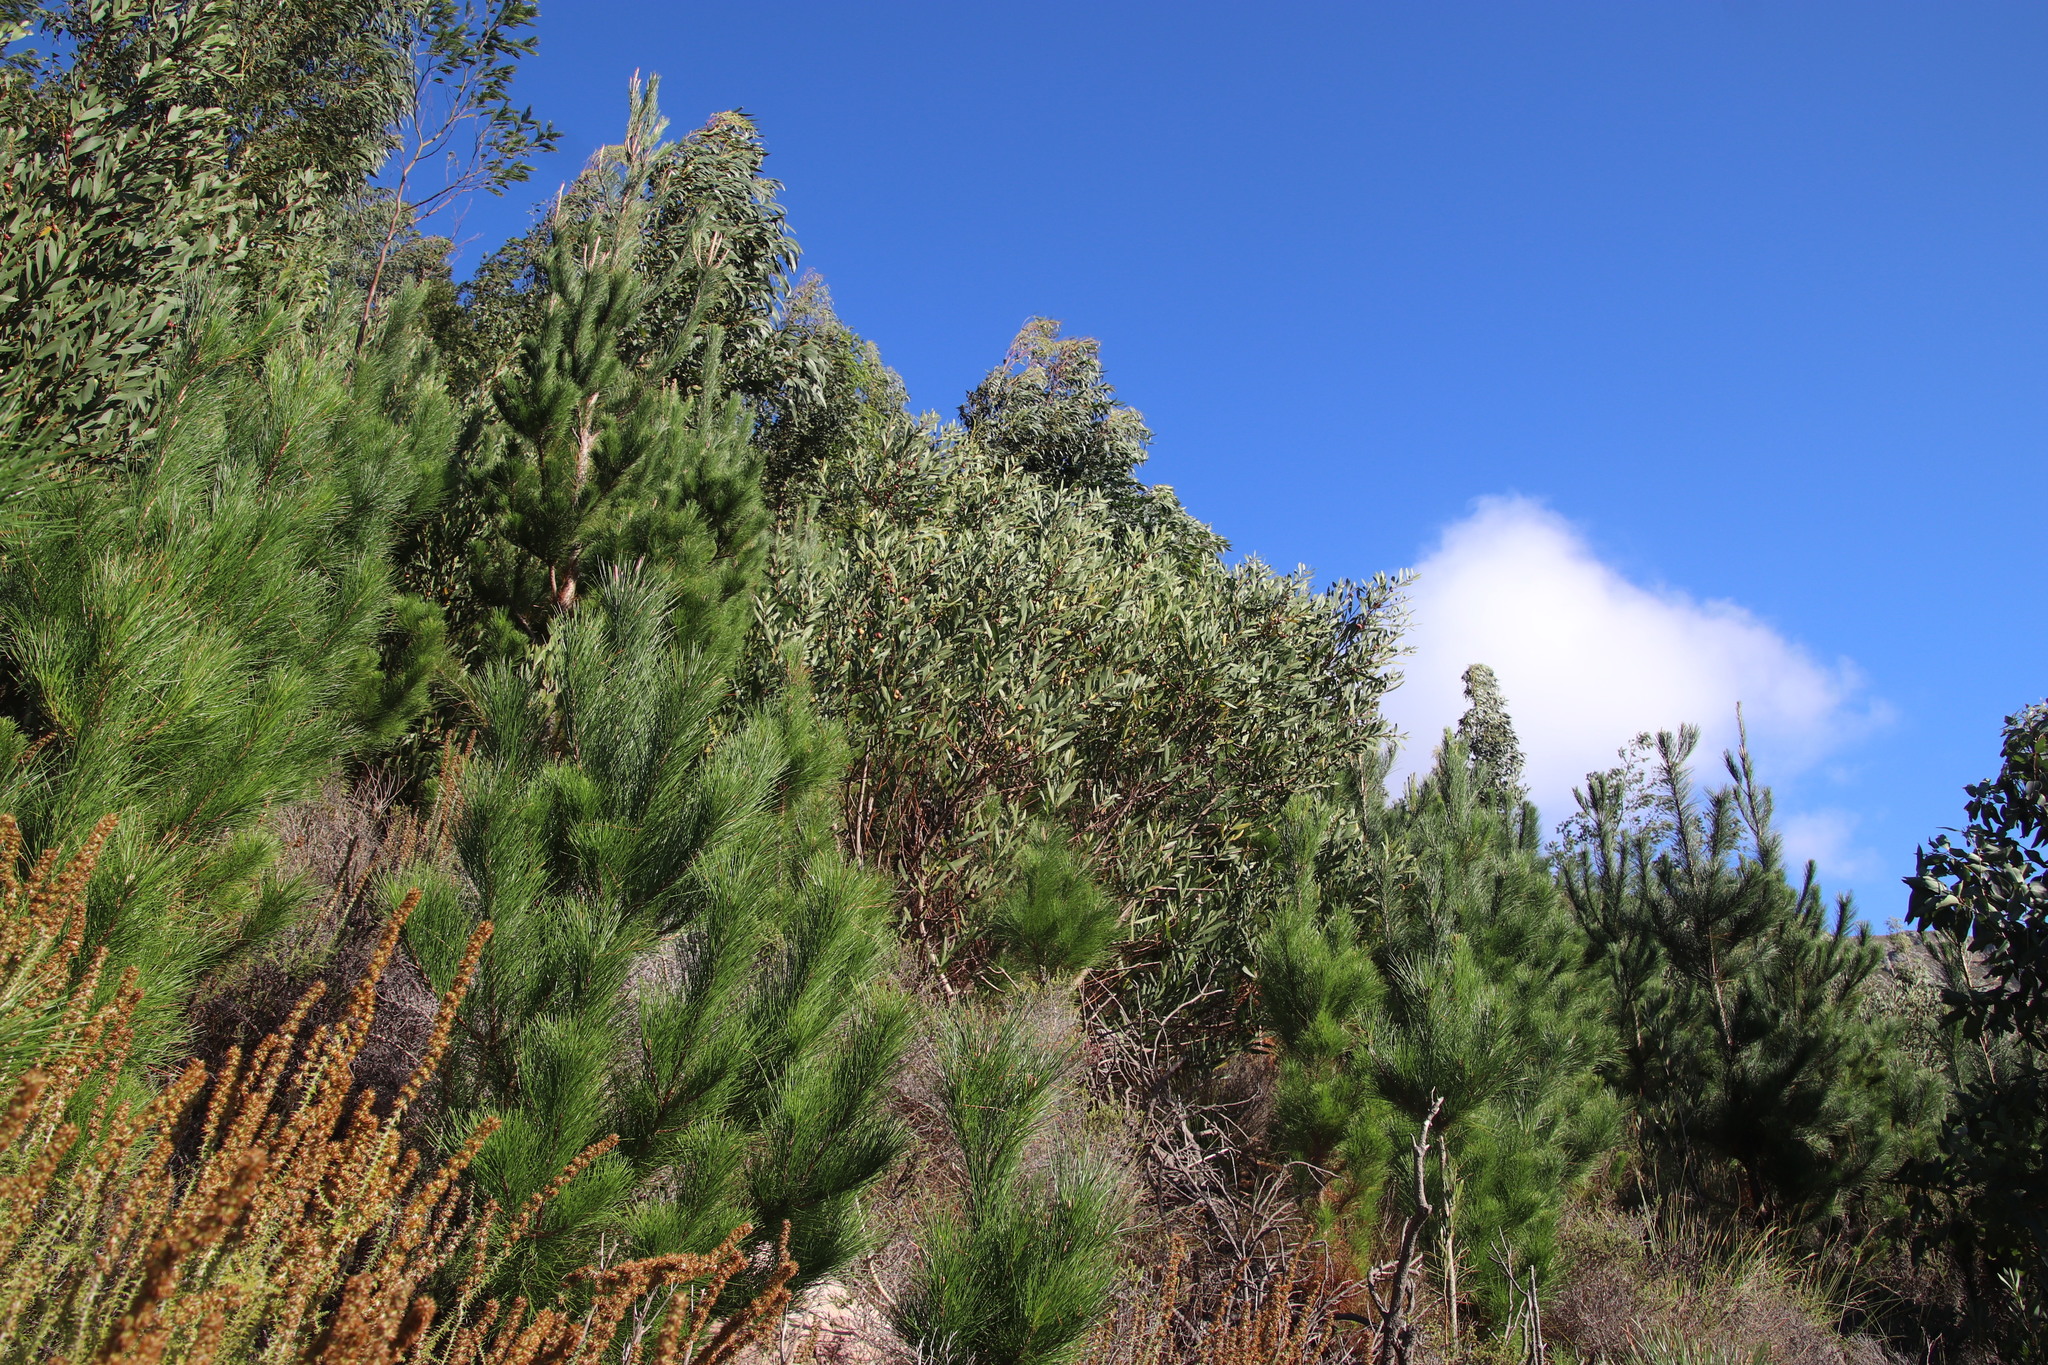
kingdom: Plantae
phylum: Tracheophyta
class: Magnoliopsida
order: Fabales
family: Fabaceae
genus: Acacia
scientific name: Acacia longifolia
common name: Sydney golden wattle
